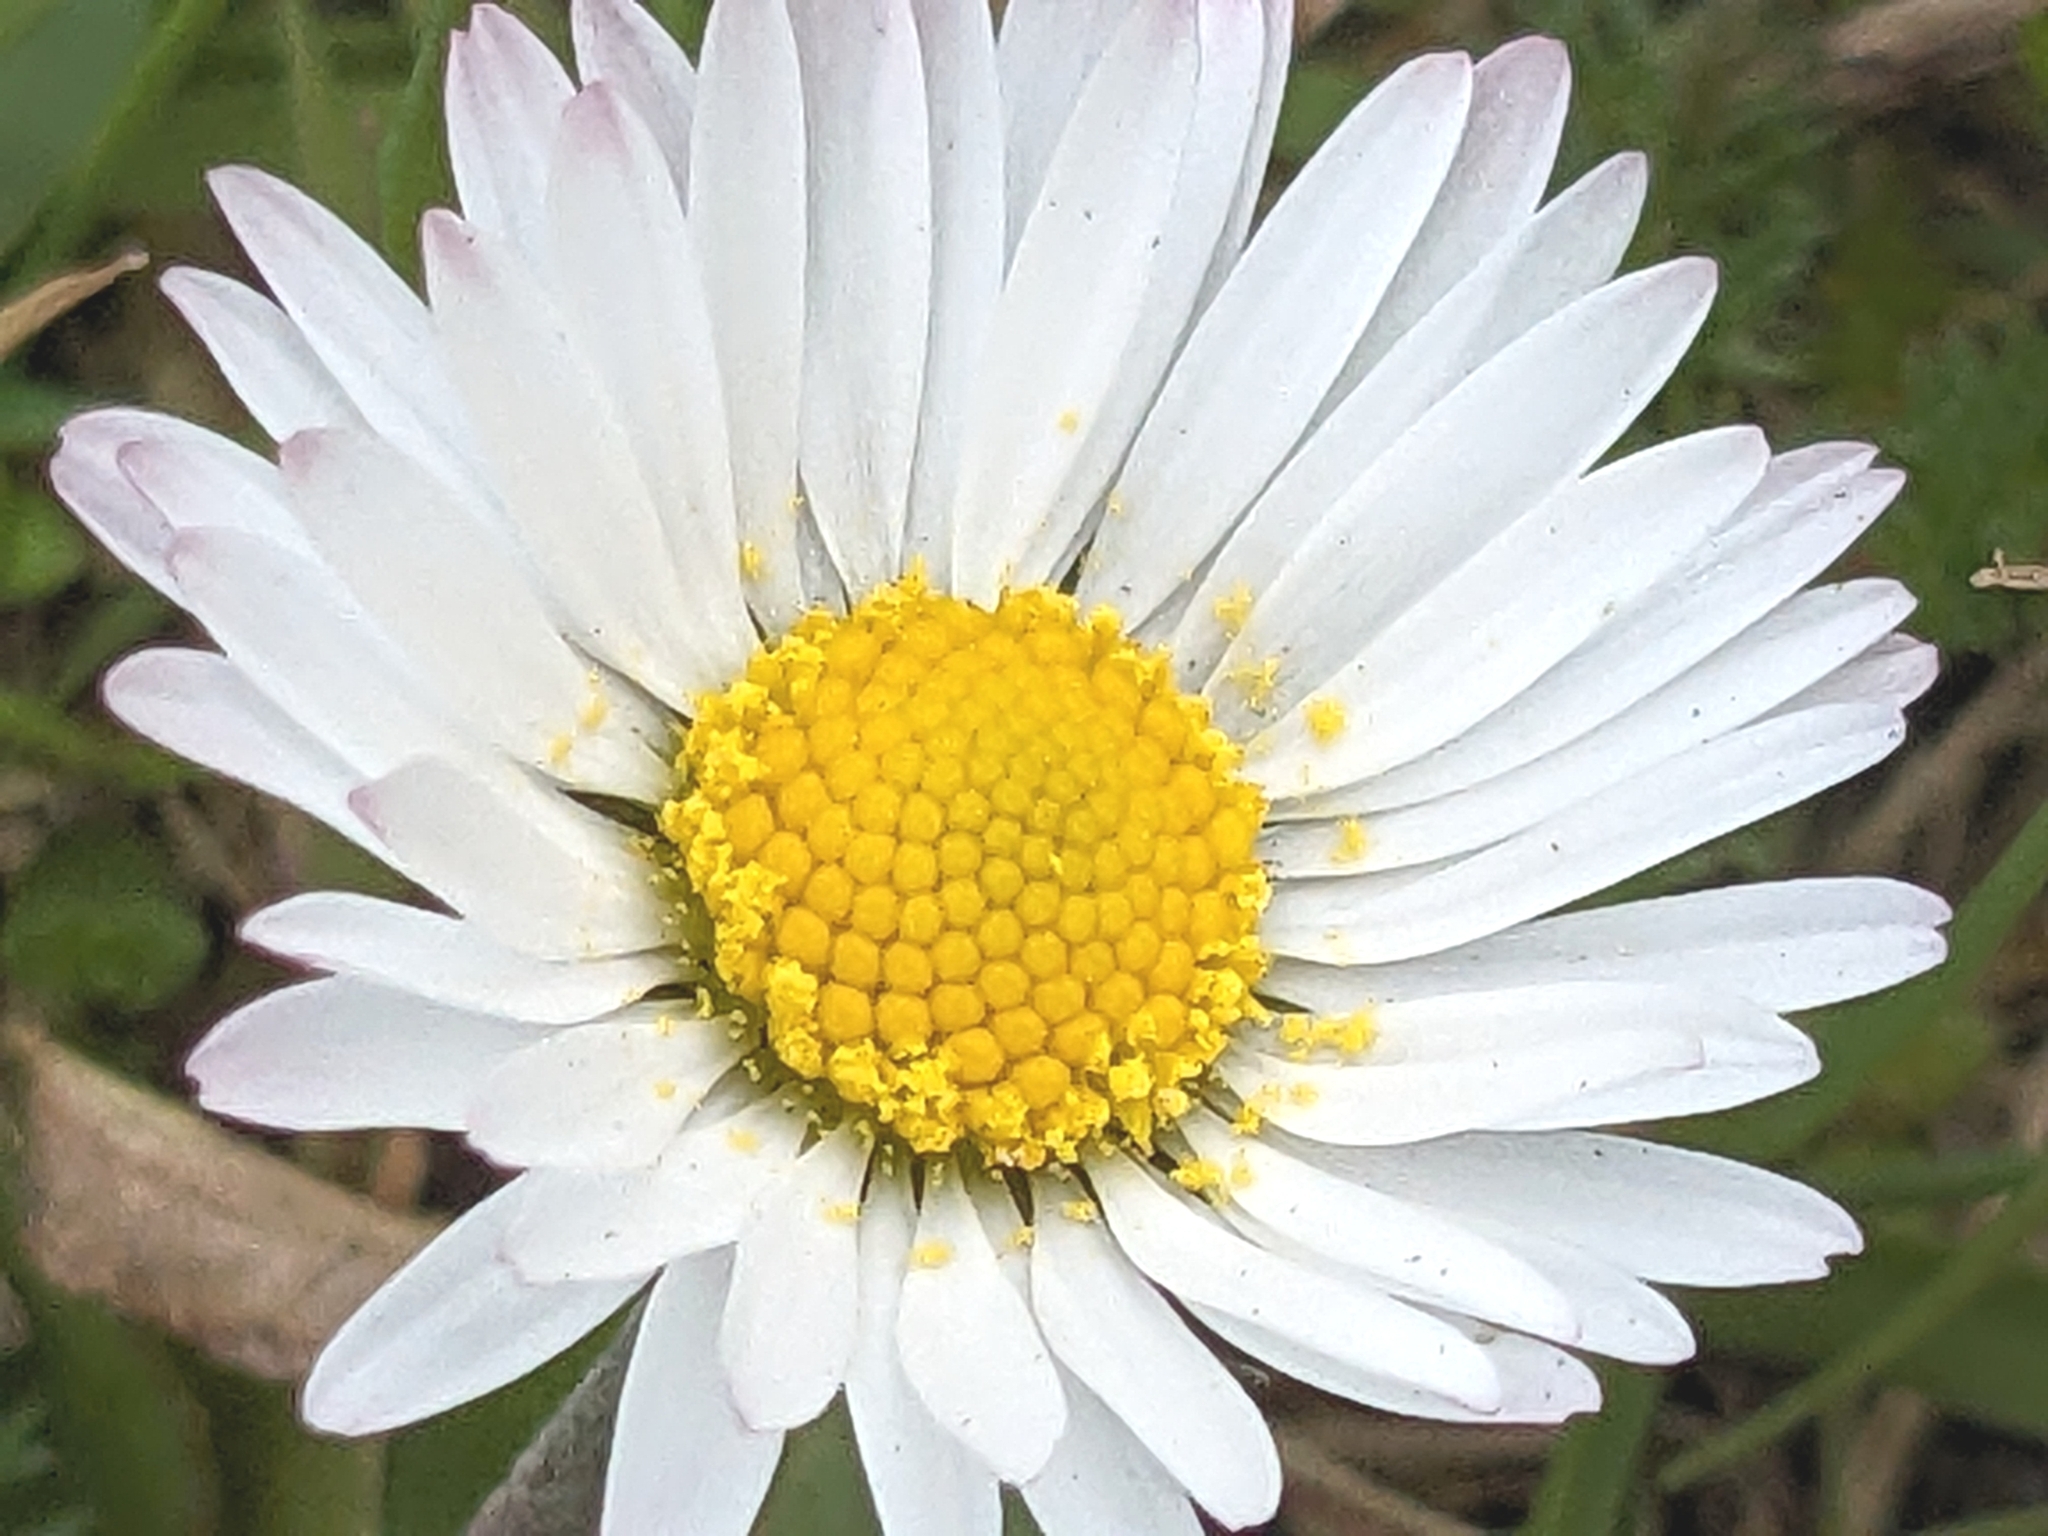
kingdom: Plantae
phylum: Tracheophyta
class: Magnoliopsida
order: Asterales
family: Asteraceae
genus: Bellis
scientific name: Bellis perennis
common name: Lawndaisy
